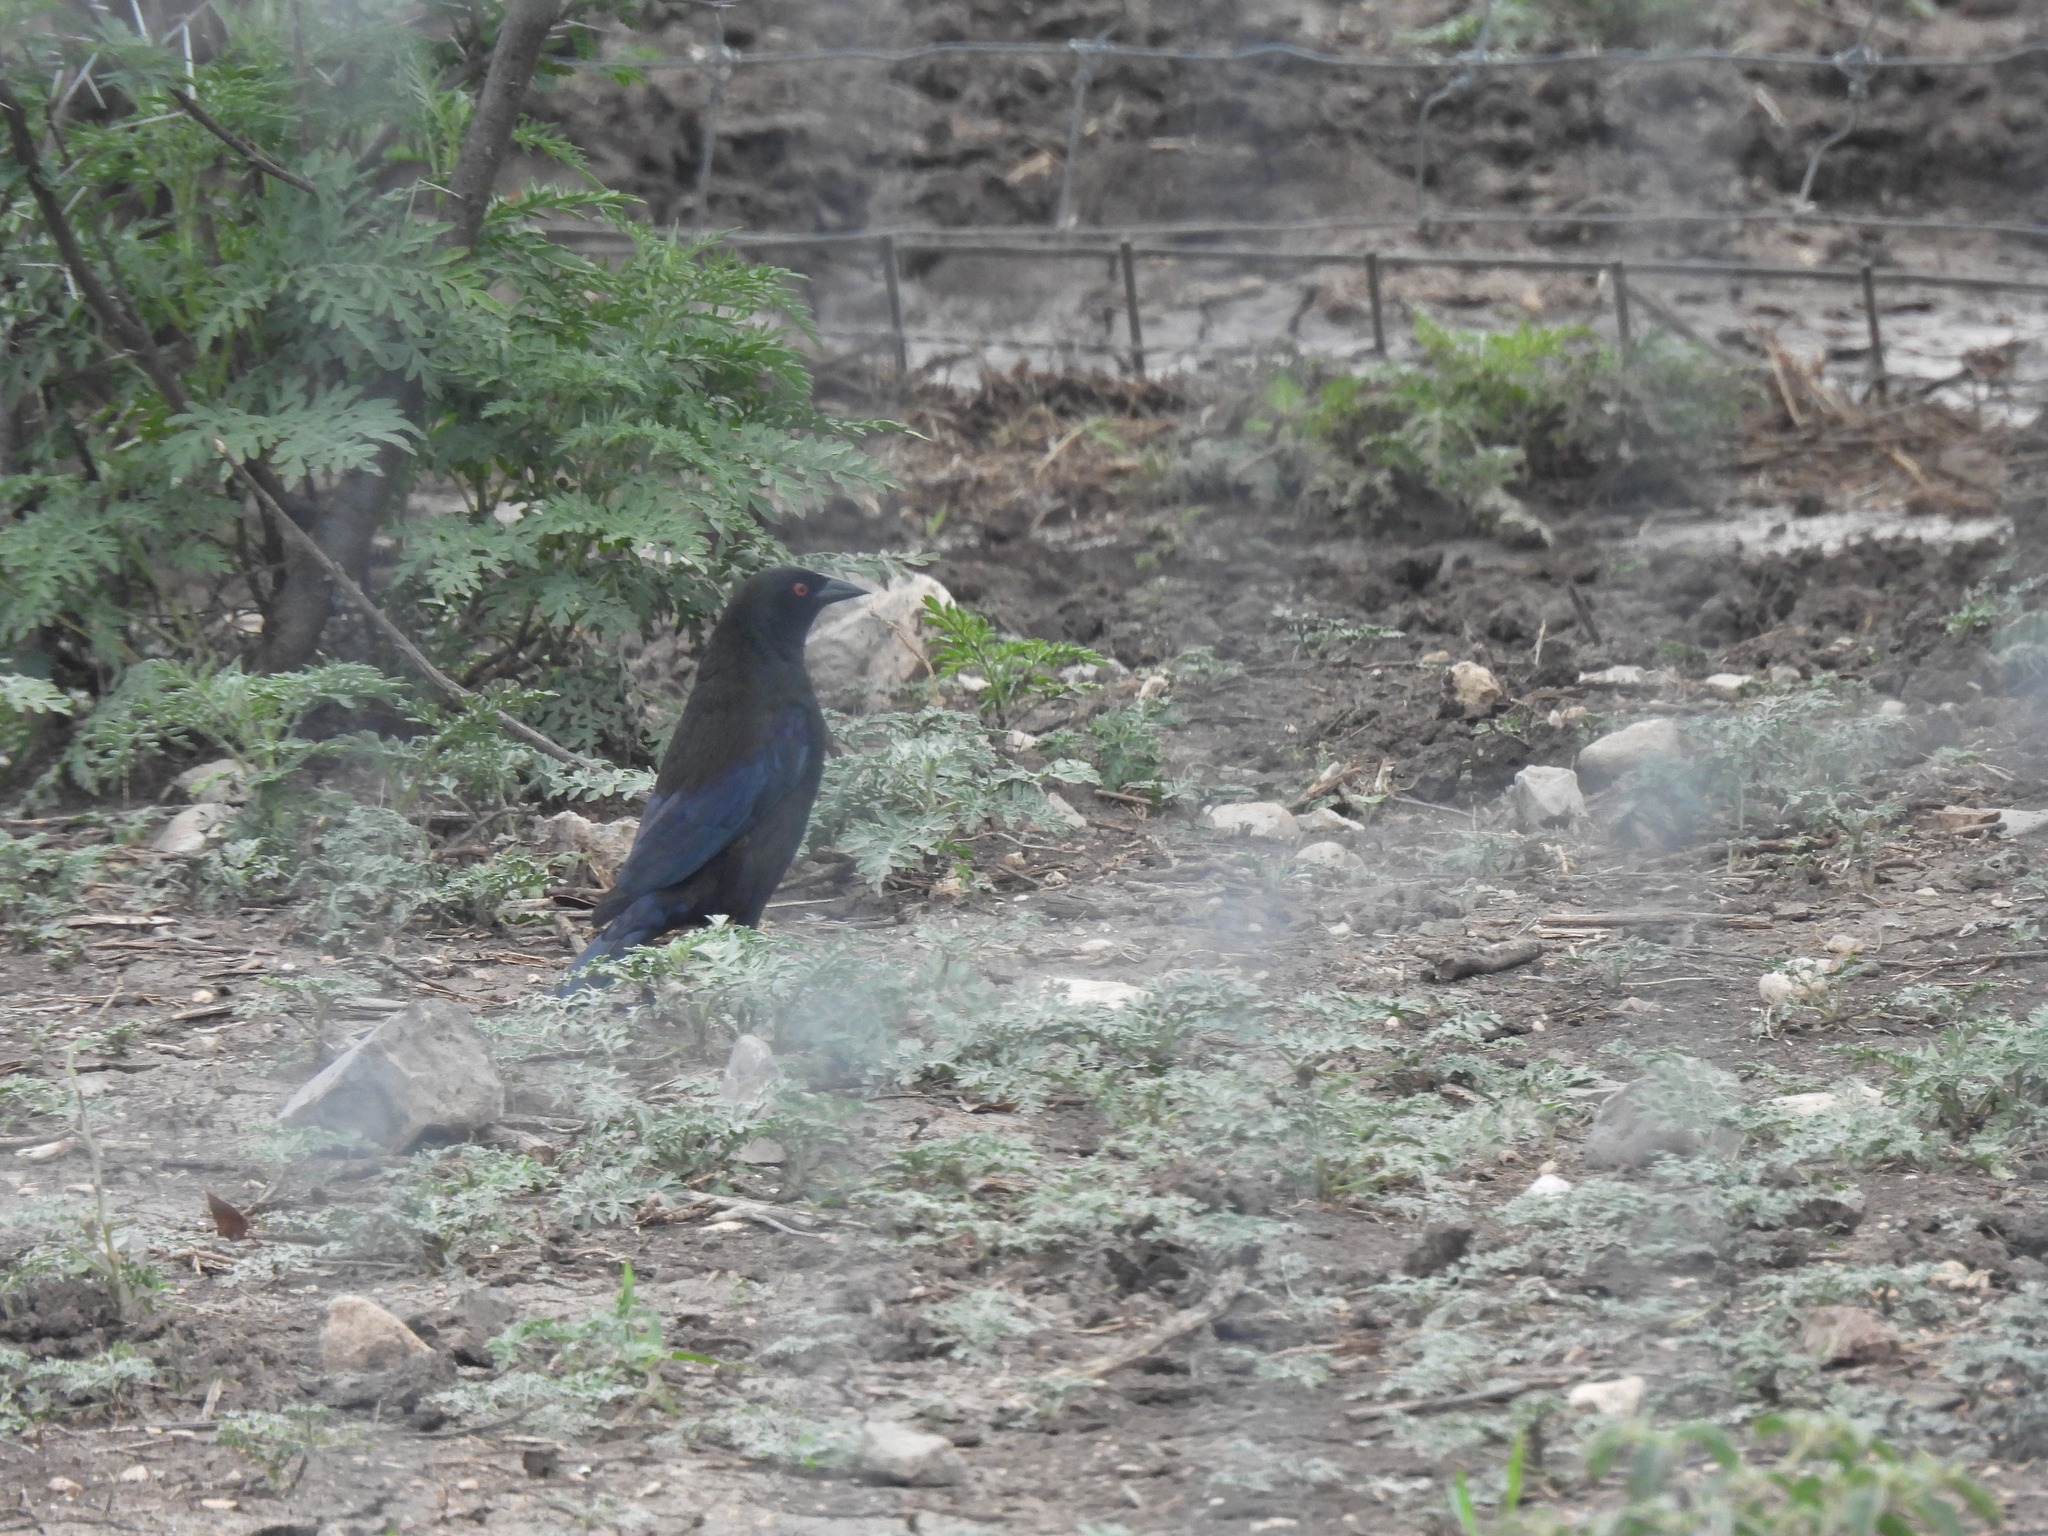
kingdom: Animalia
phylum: Chordata
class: Aves
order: Passeriformes
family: Icteridae
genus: Molothrus
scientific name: Molothrus aeneus
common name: Bronzed cowbird
